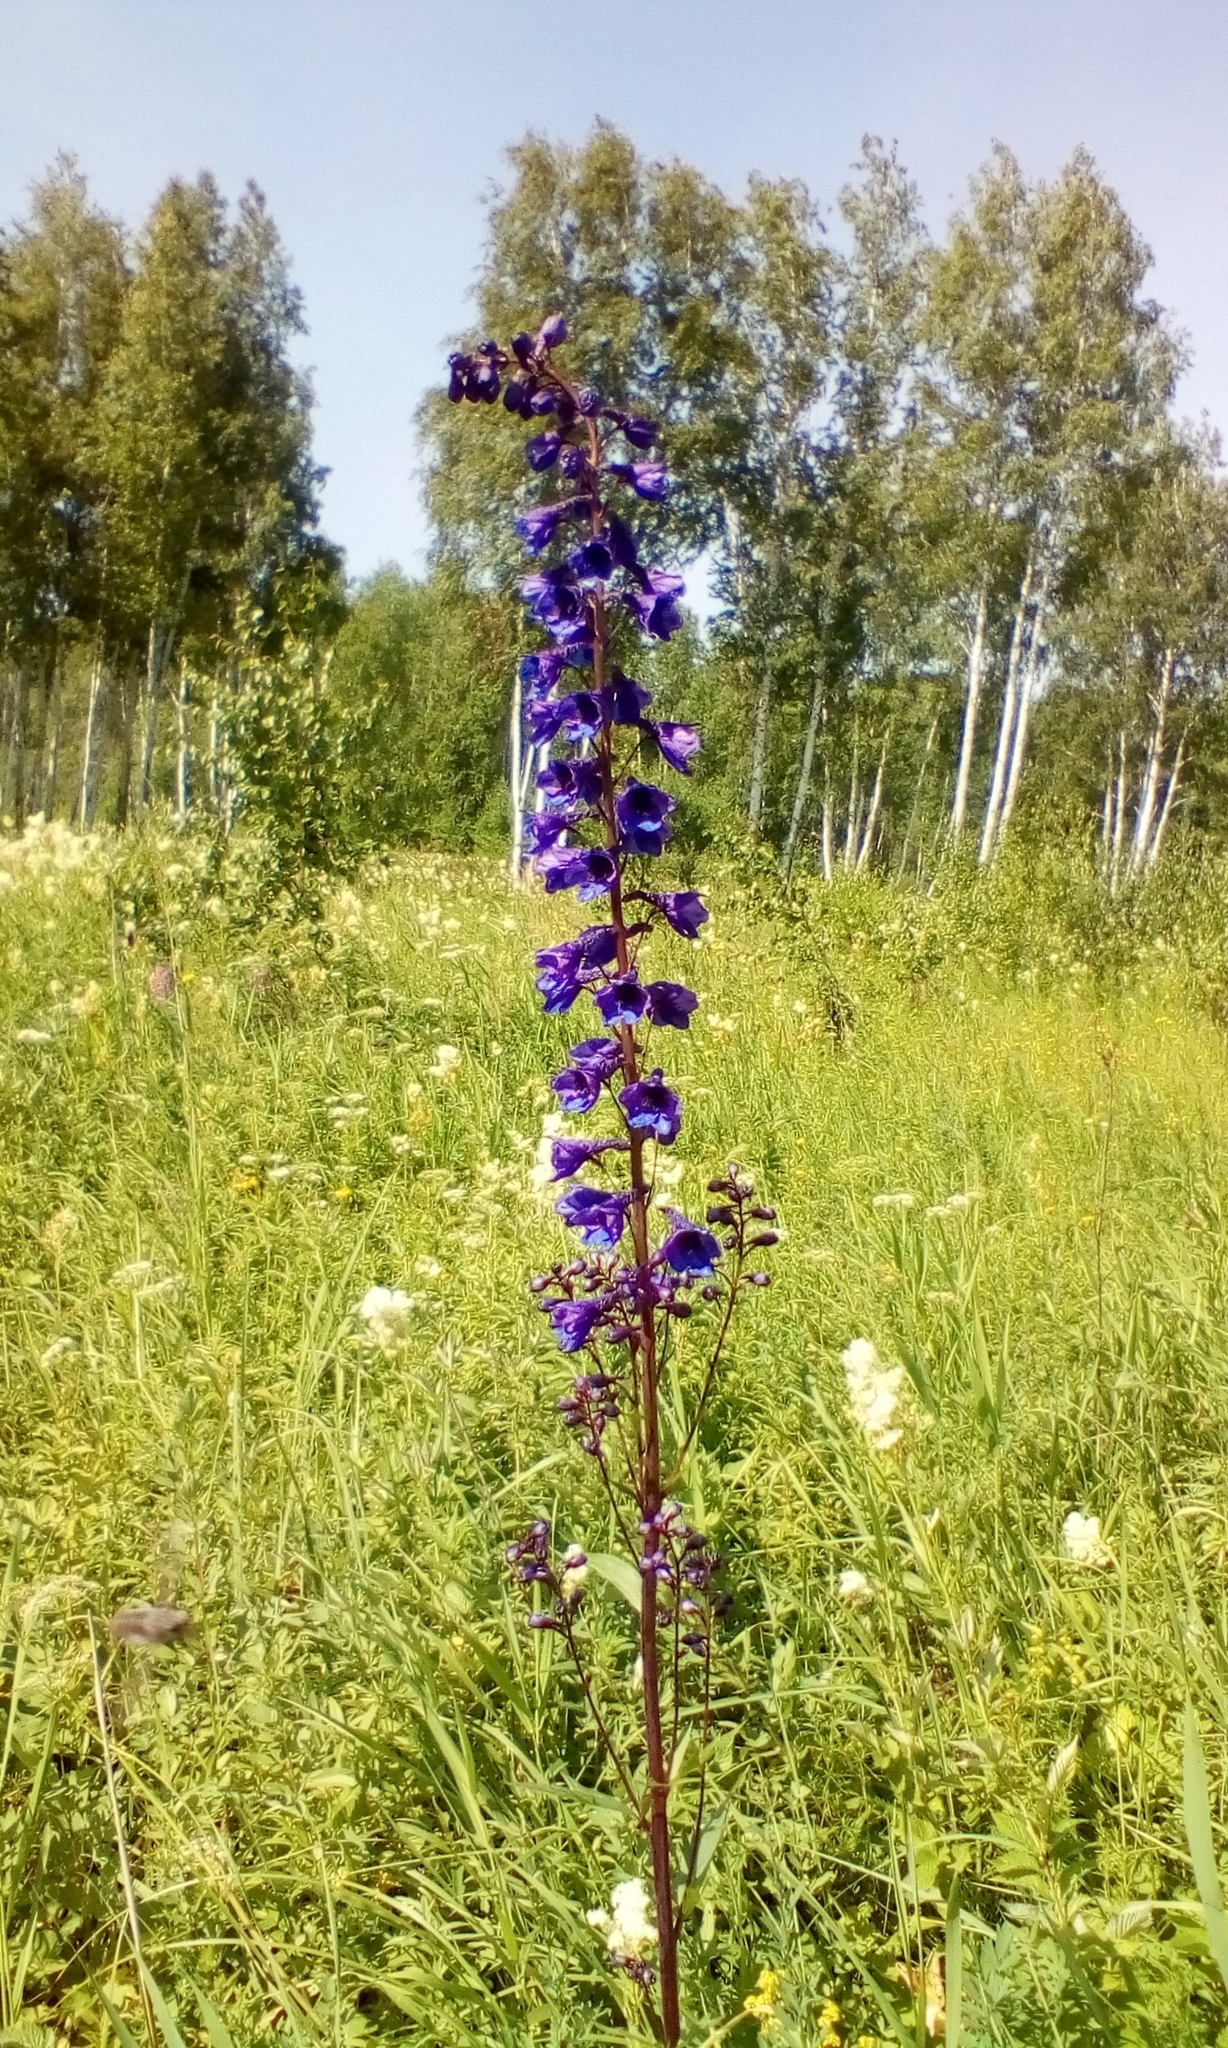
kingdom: Plantae
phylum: Tracheophyta
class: Magnoliopsida
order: Ranunculales
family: Ranunculaceae
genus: Delphinium
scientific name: Delphinium elatum
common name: Candle larkspur
